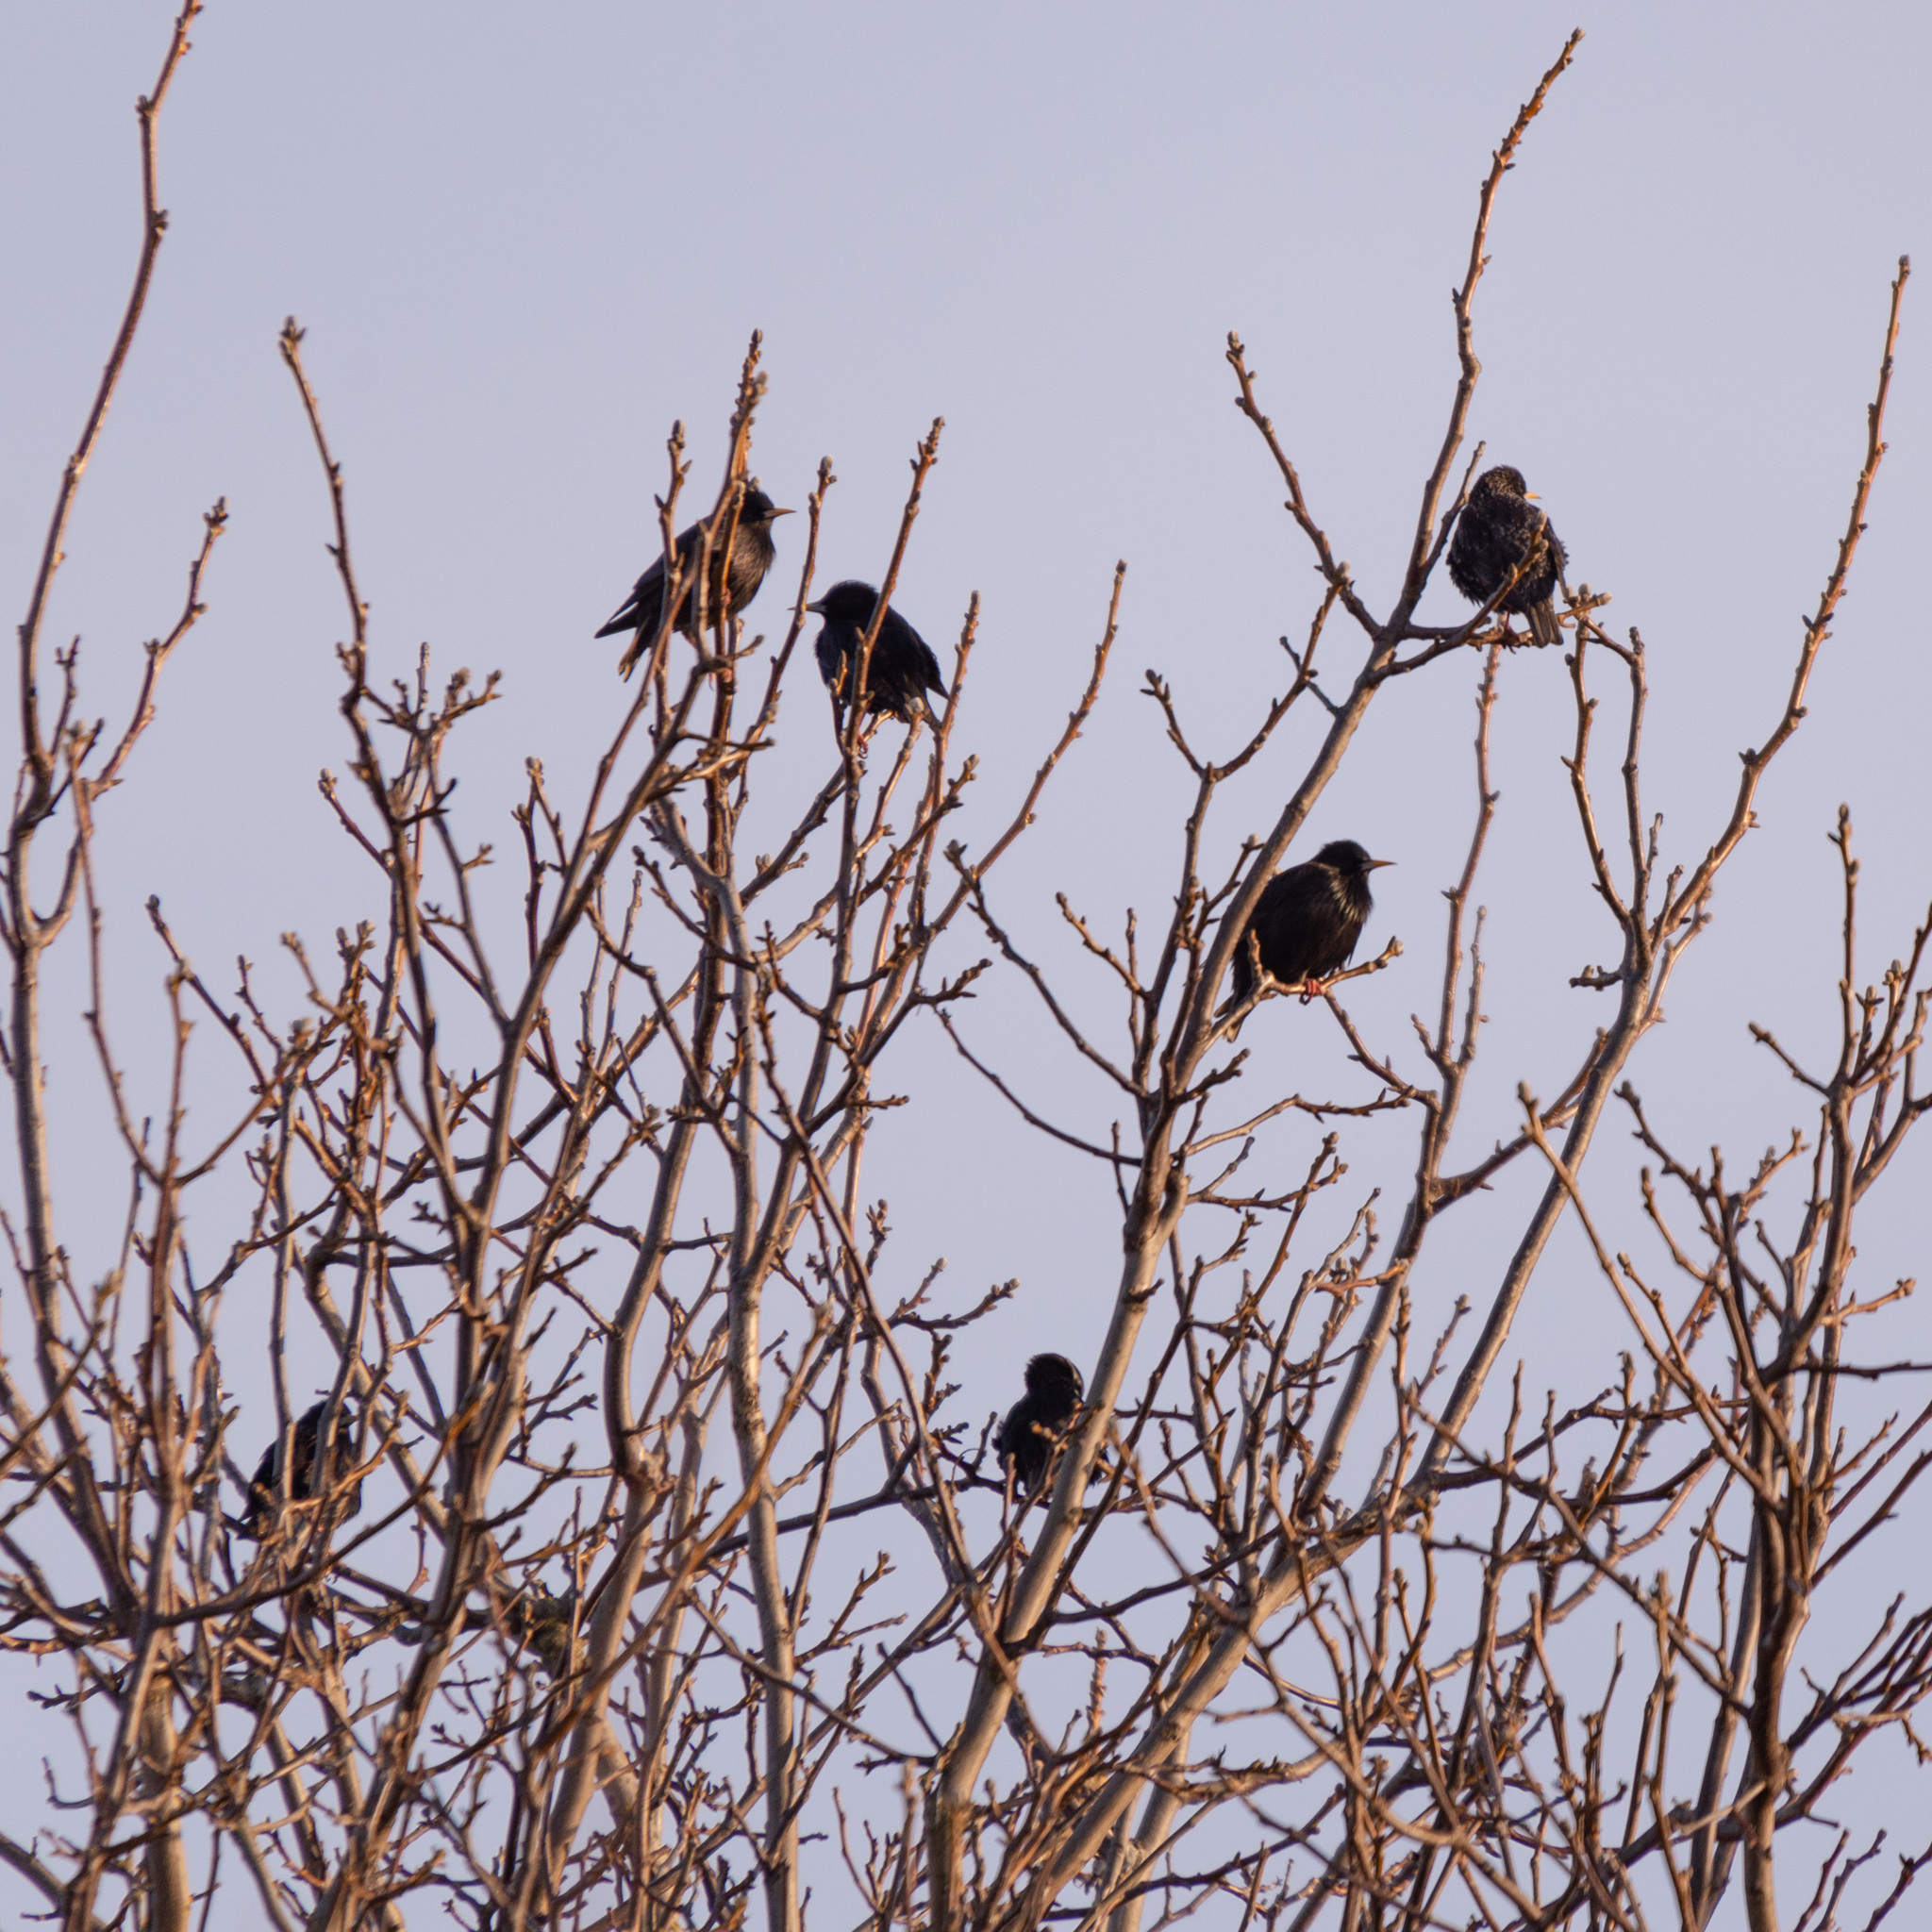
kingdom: Animalia
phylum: Chordata
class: Aves
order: Passeriformes
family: Sturnidae
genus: Sturnus
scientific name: Sturnus unicolor
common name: Spotless starling
